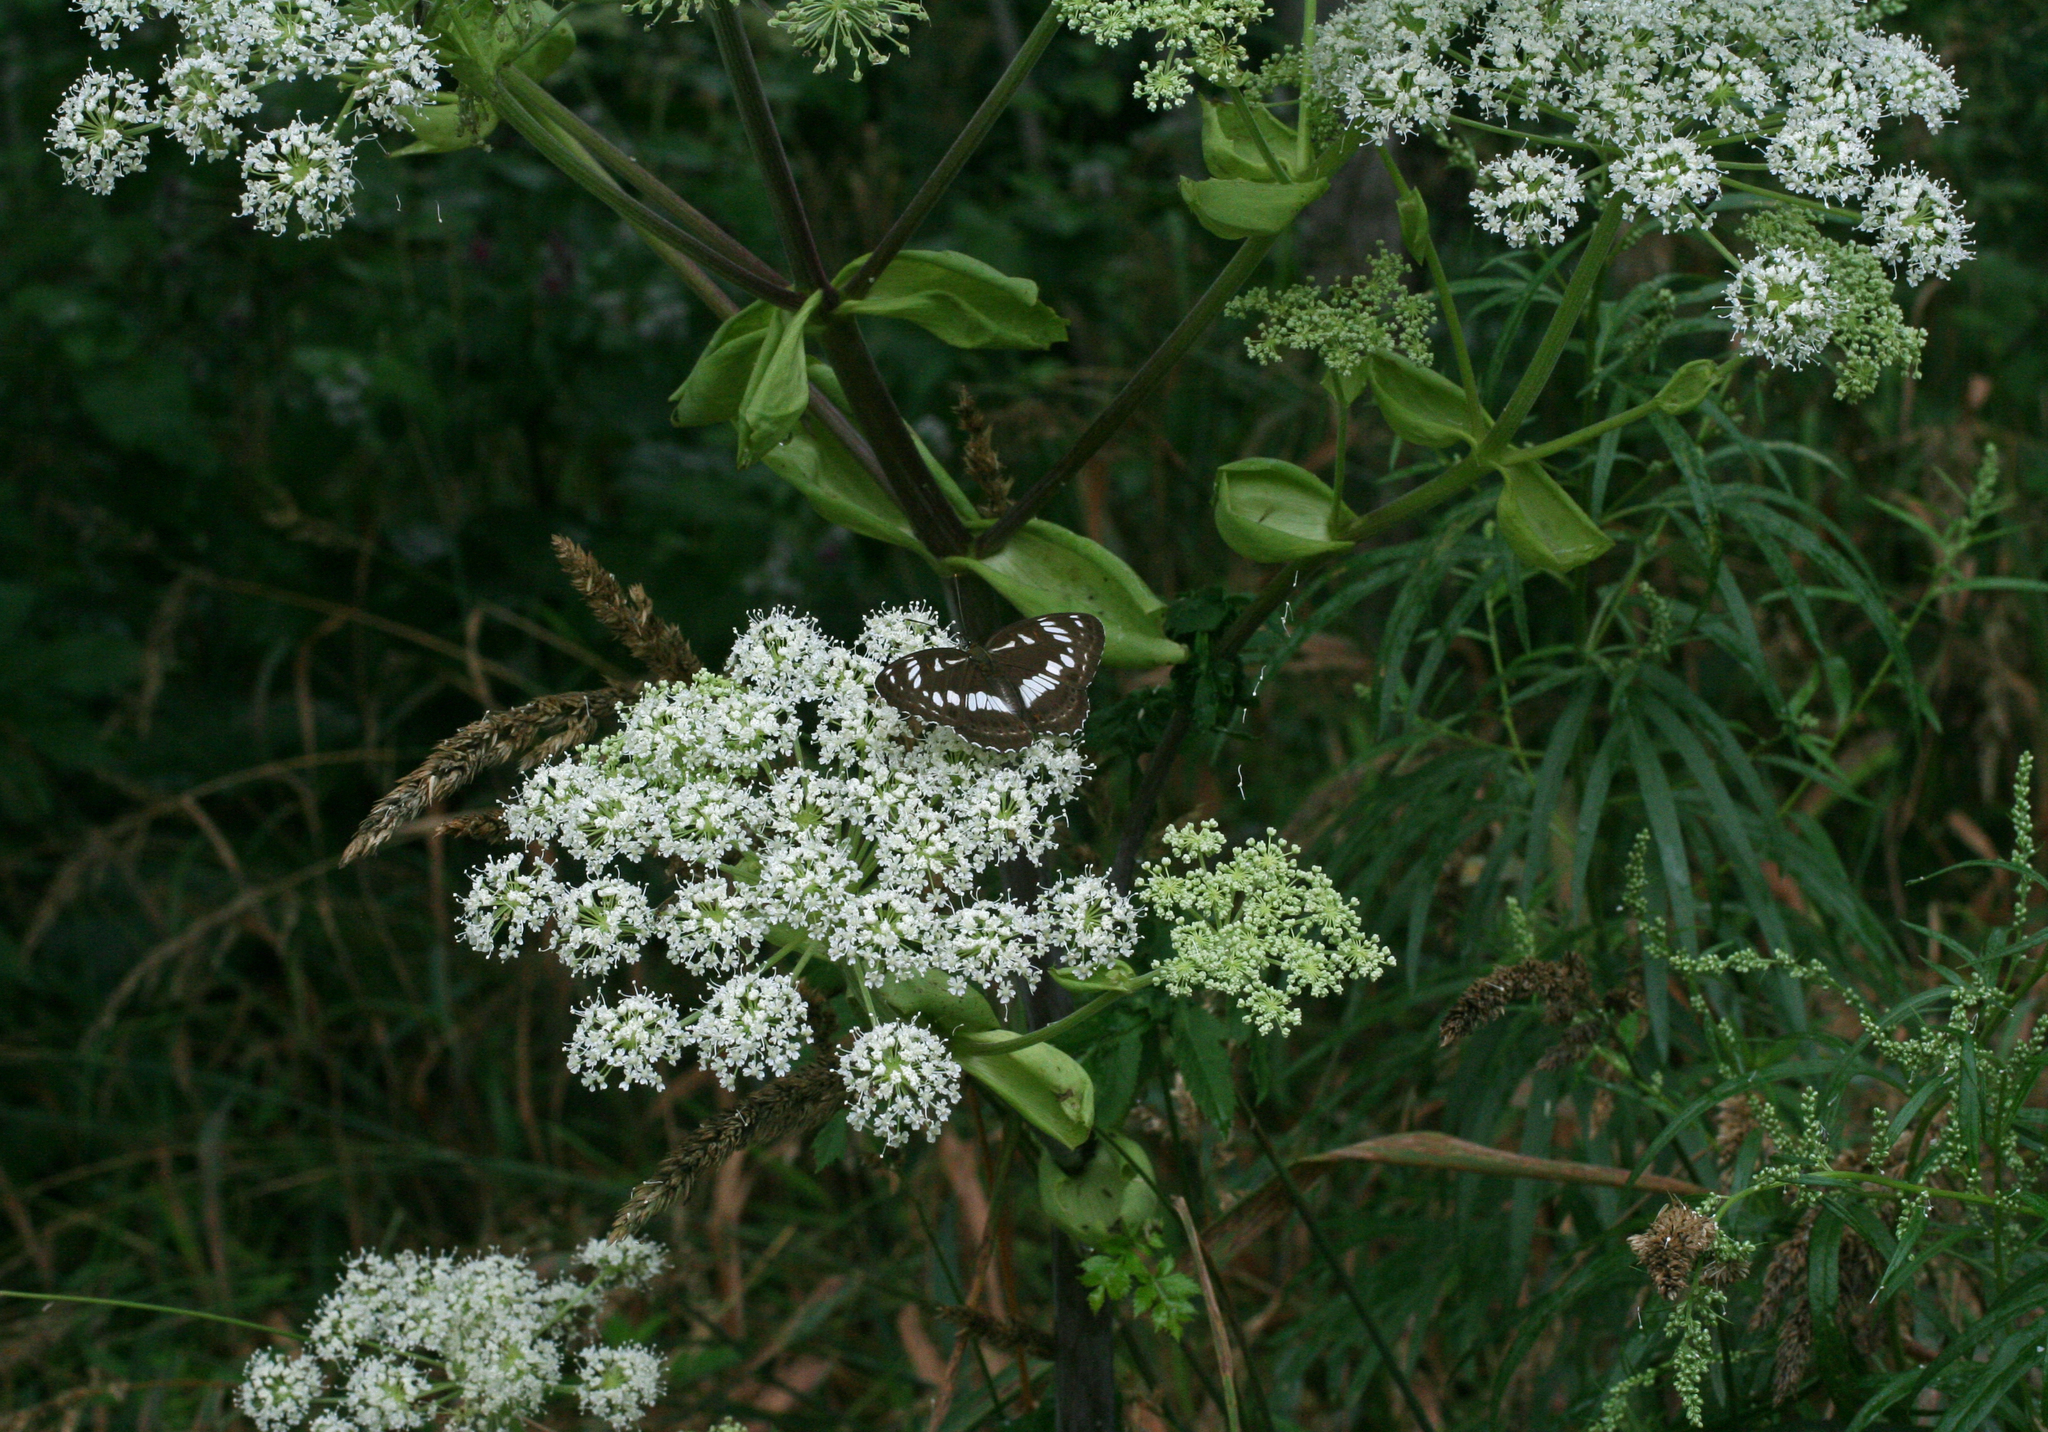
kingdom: Plantae
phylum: Tracheophyta
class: Magnoliopsida
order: Apiales
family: Apiaceae
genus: Angelica
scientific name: Angelica dahurica
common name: Dahurian angelica
